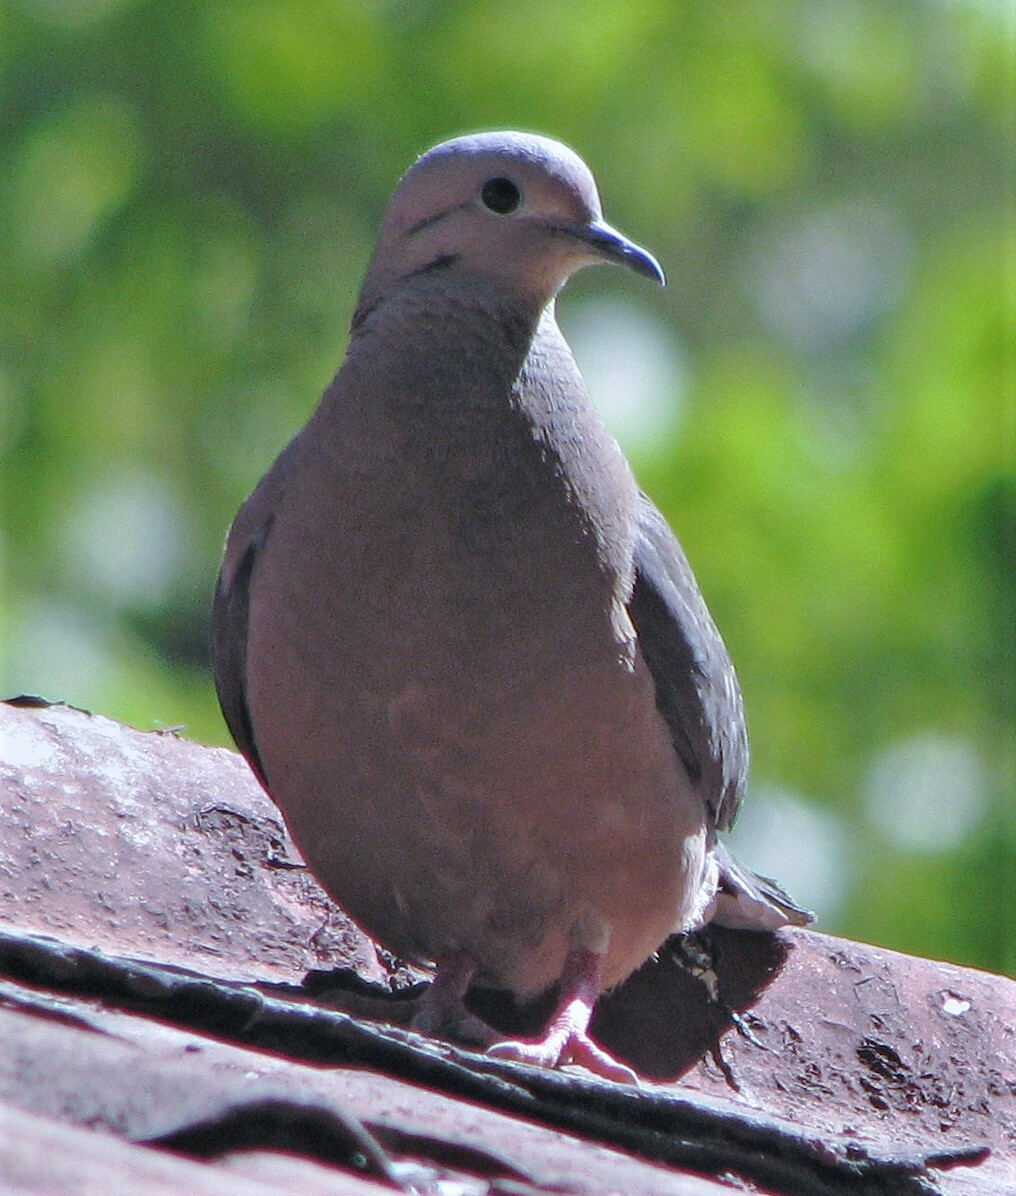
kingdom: Animalia
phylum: Chordata
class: Aves
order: Columbiformes
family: Columbidae
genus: Zenaida
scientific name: Zenaida auriculata
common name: Eared dove
